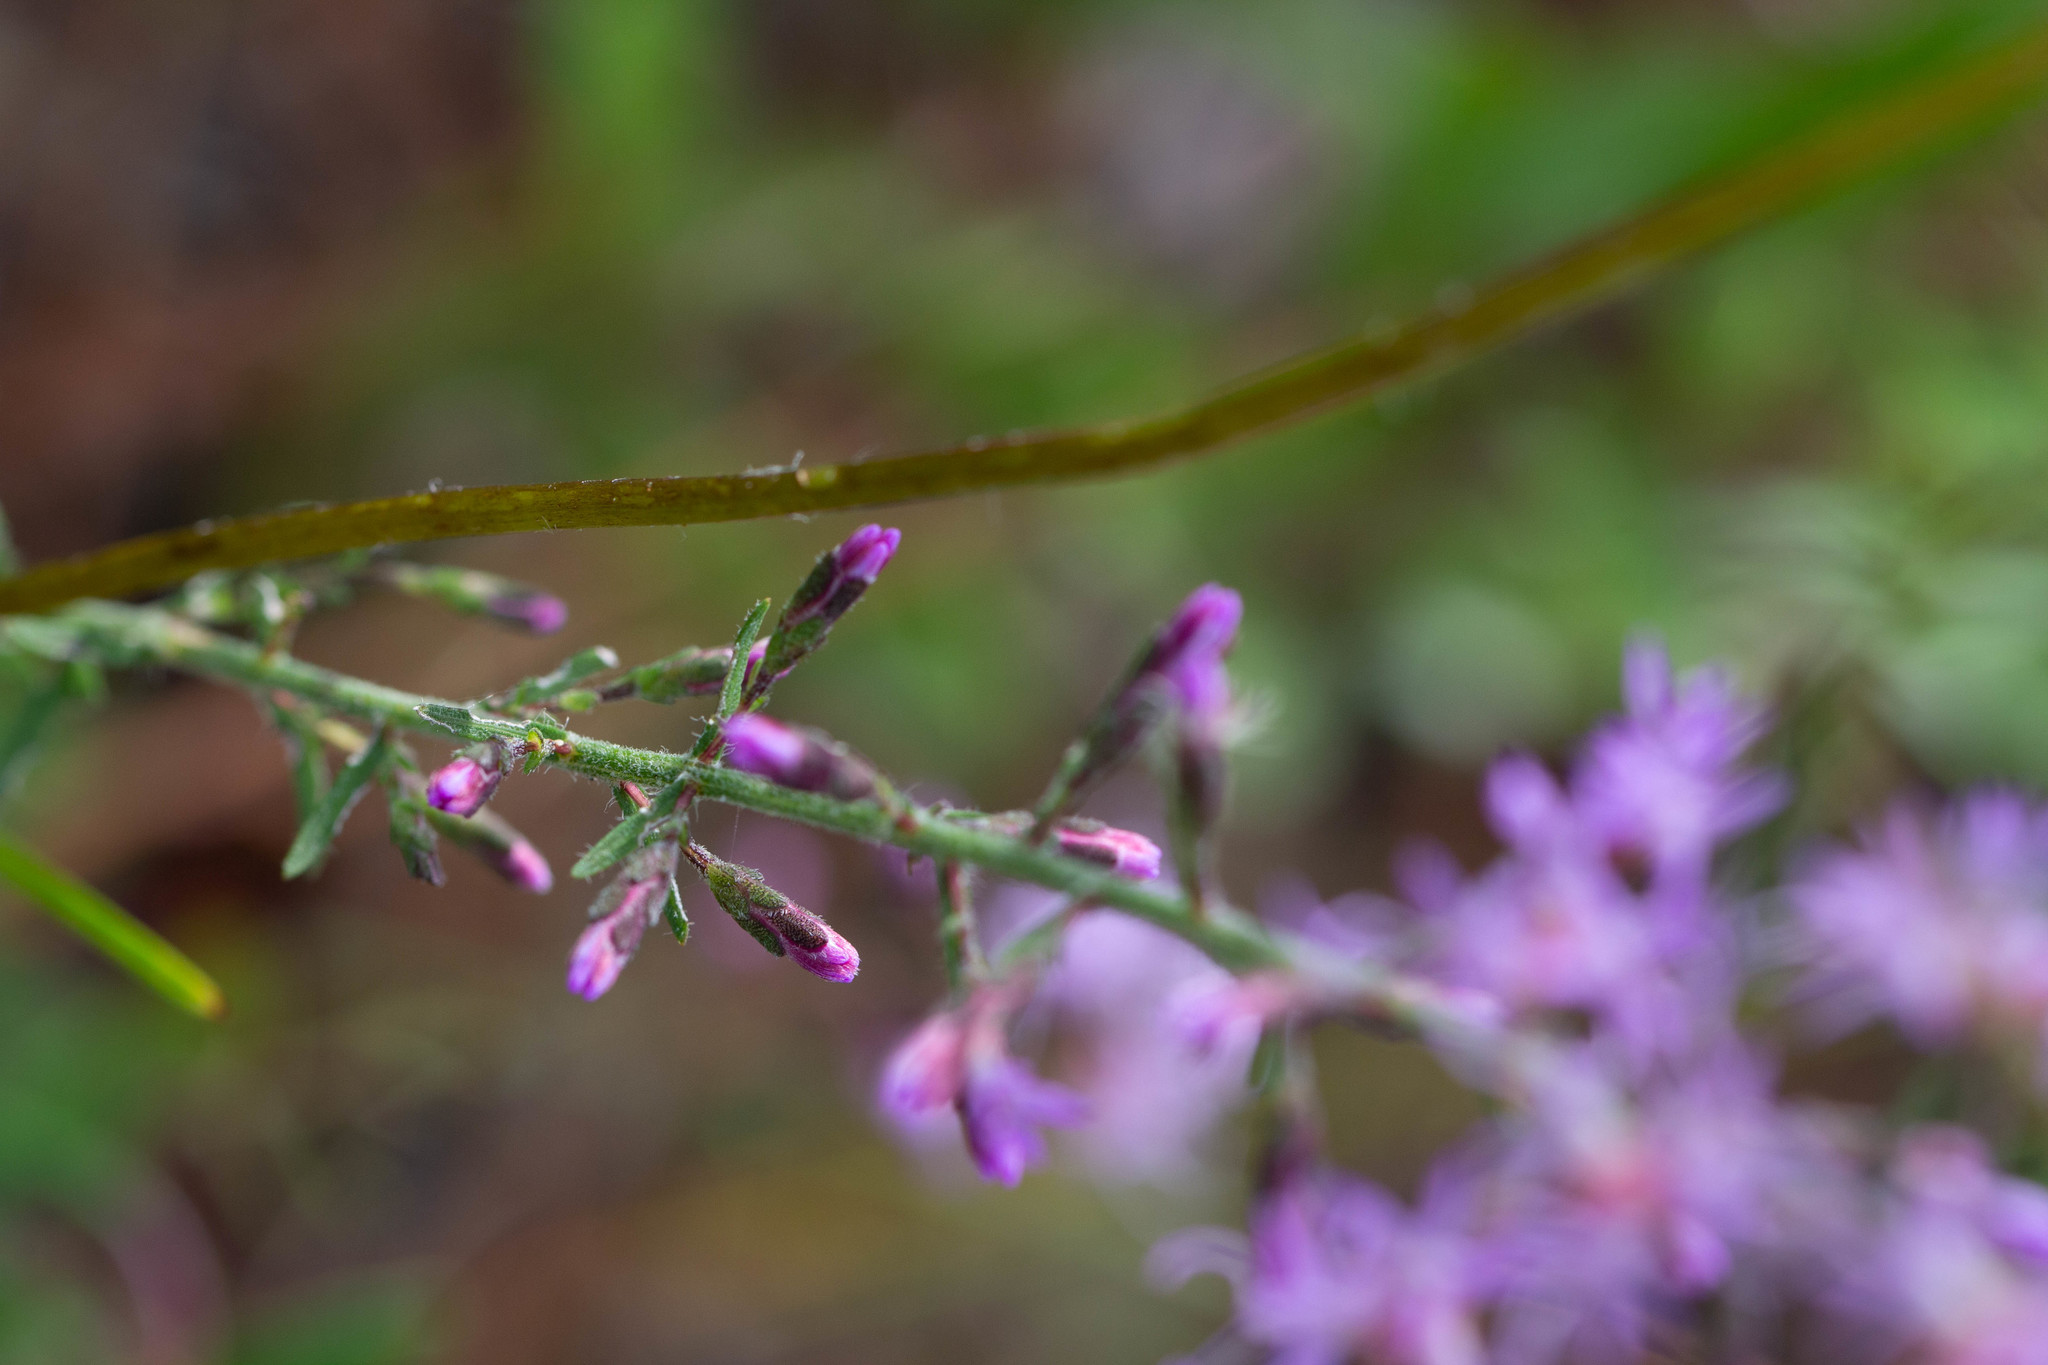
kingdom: Plantae
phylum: Tracheophyta
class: Magnoliopsida
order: Asterales
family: Asteraceae
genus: Liatris
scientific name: Liatris gracilis
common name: Slender gayfeather
